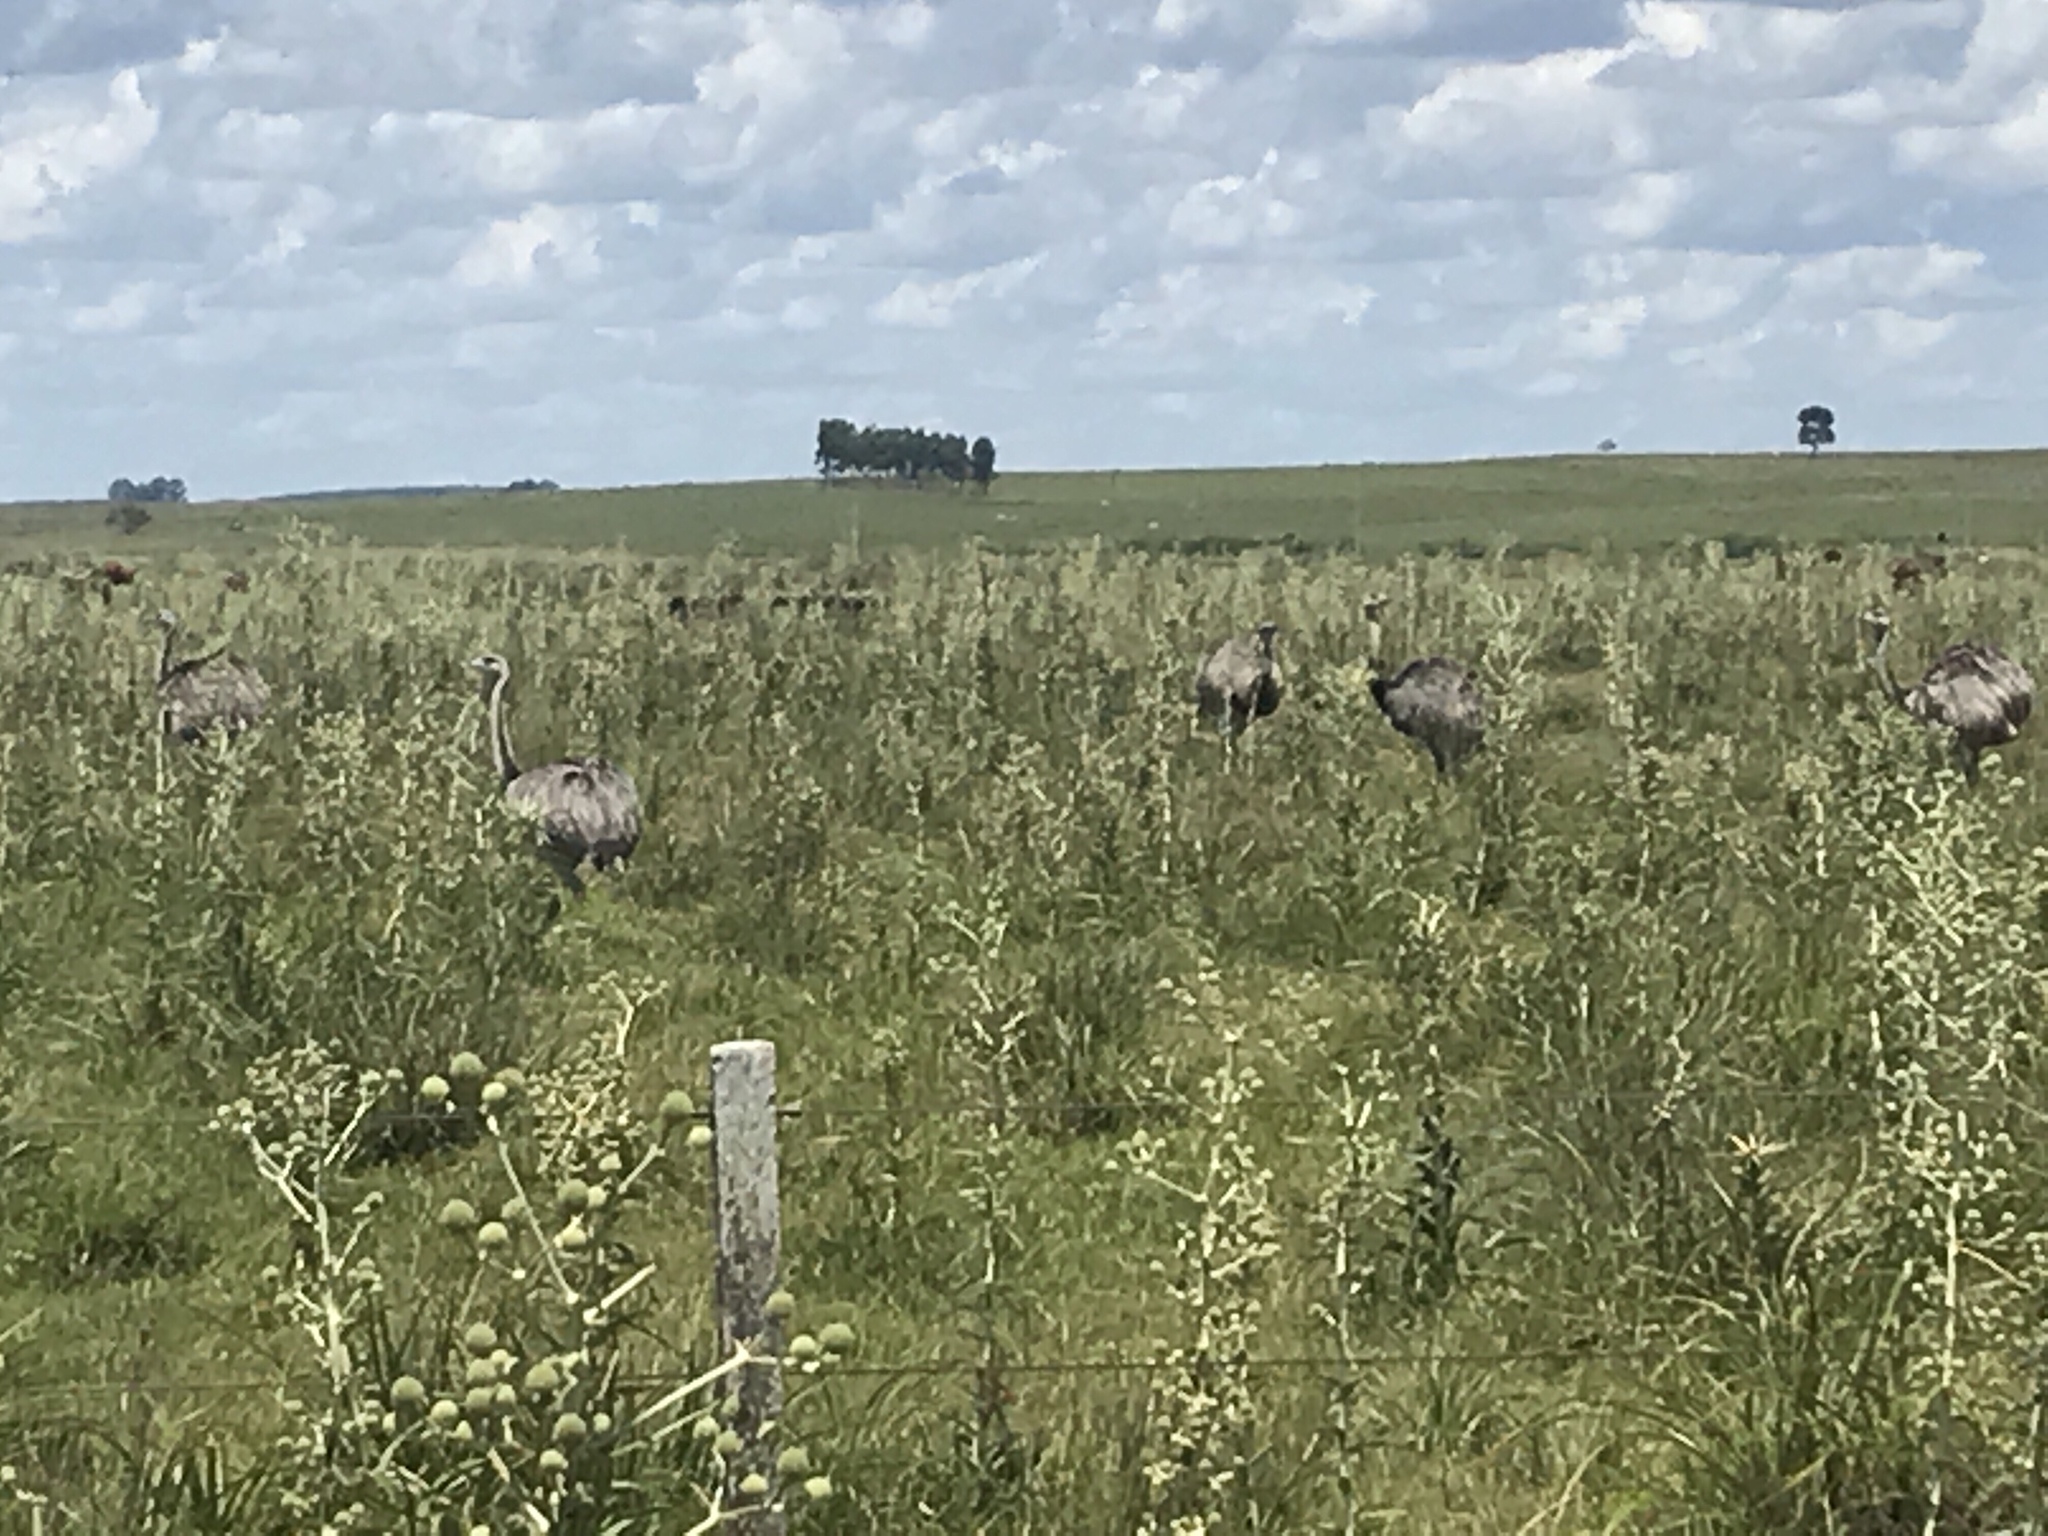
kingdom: Animalia
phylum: Chordata
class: Aves
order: Rheiformes
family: Rheidae
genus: Rhea
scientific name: Rhea americana
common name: Greater rhea
